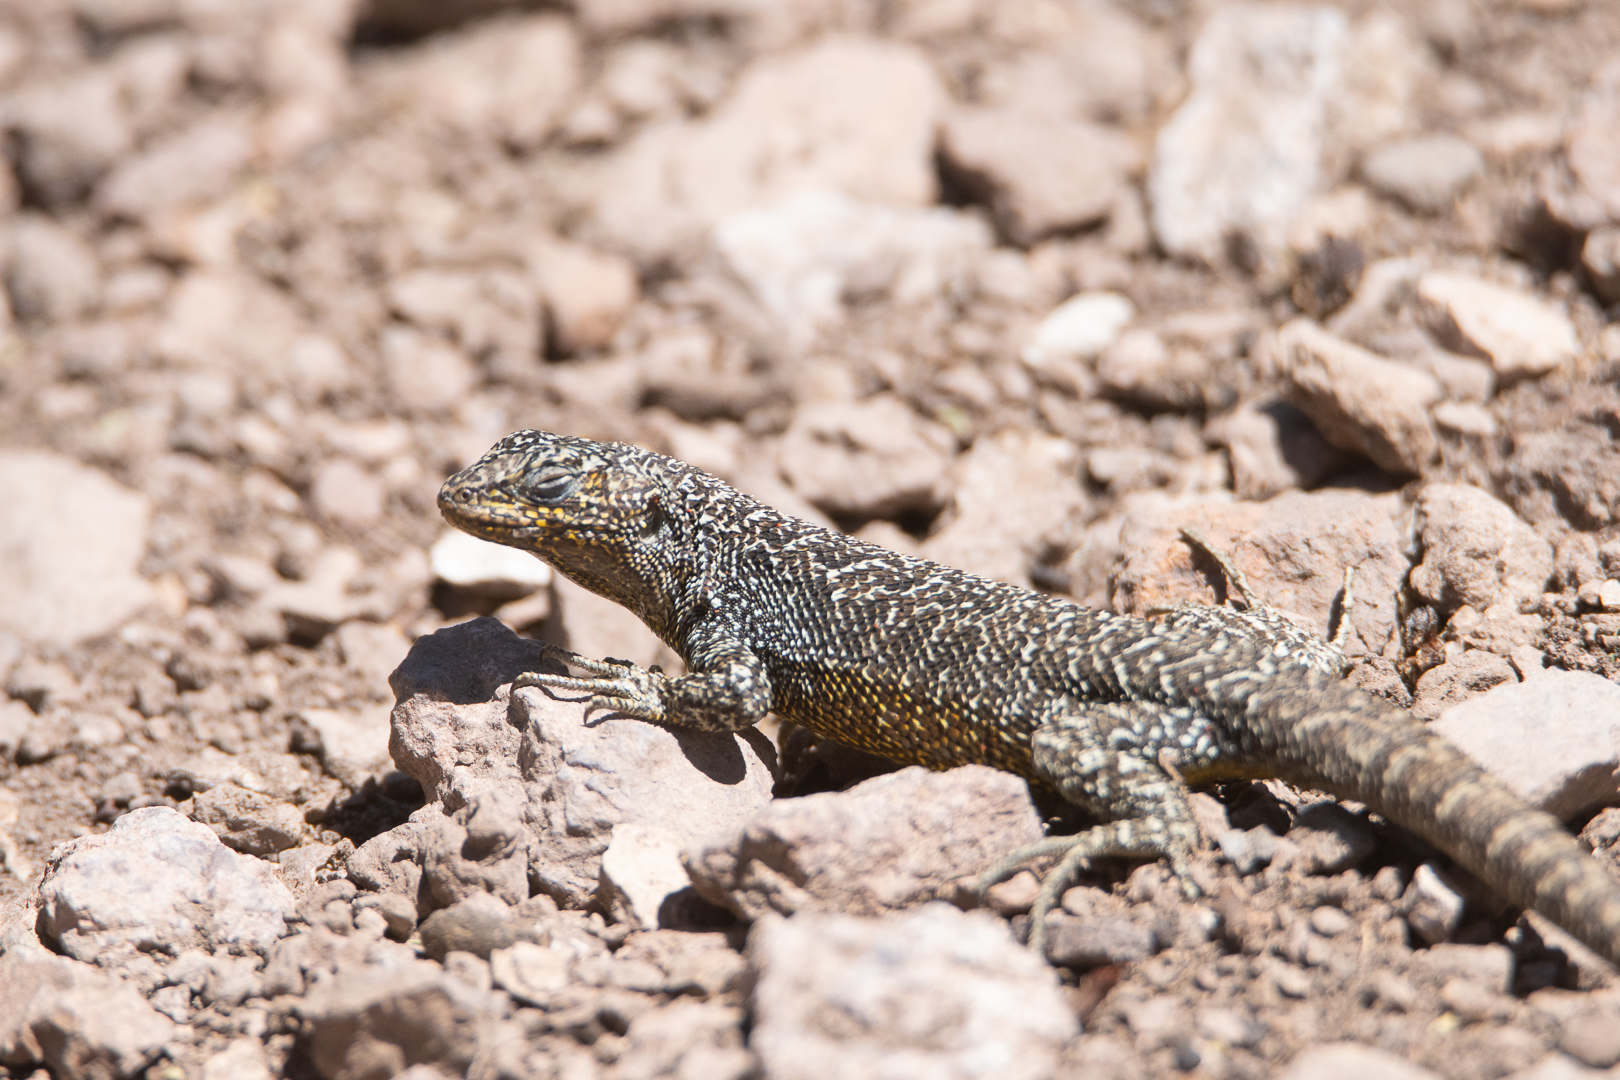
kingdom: Animalia
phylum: Chordata
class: Squamata
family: Liolaemidae
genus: Liolaemus
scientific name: Liolaemus bellii
